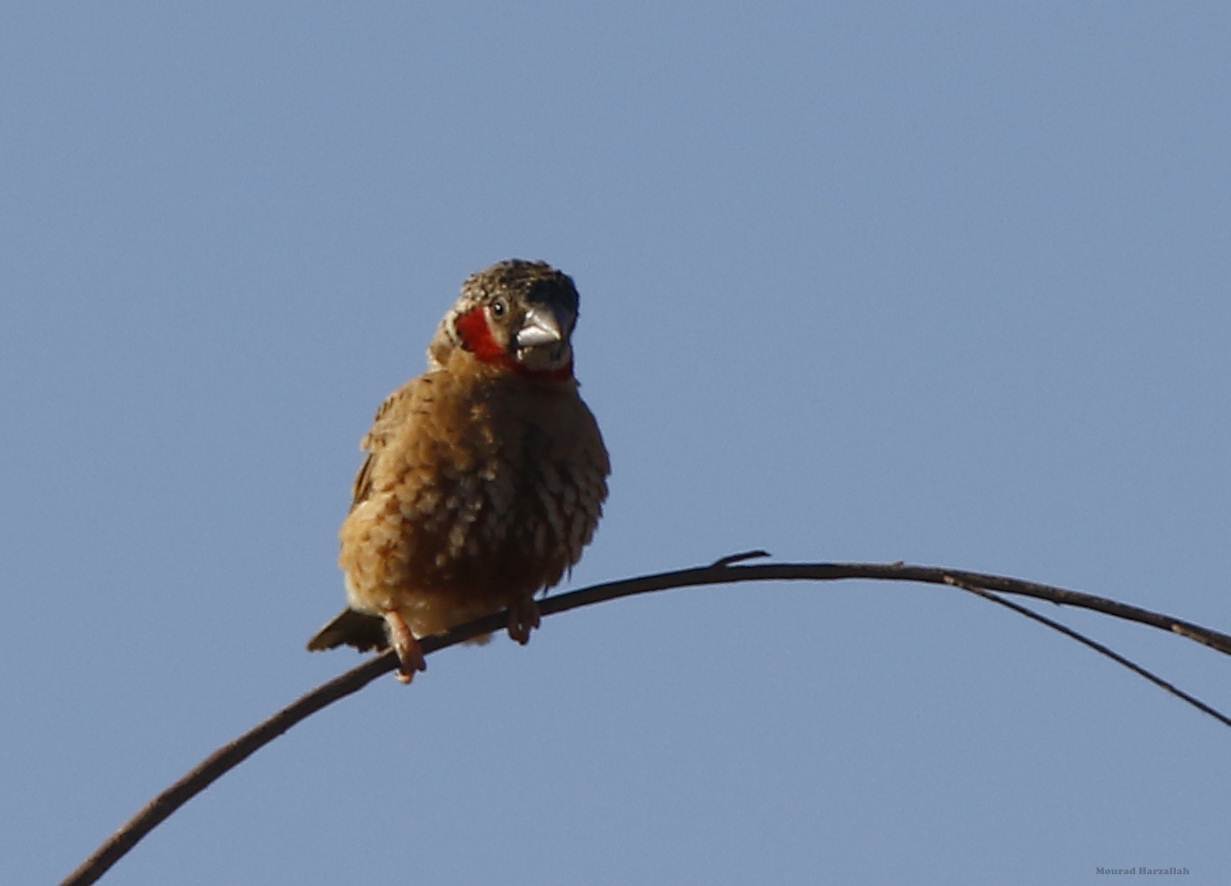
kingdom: Animalia
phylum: Chordata
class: Aves
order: Passeriformes
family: Estrildidae
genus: Amadina
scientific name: Amadina fasciata
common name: Cut-throat finch
